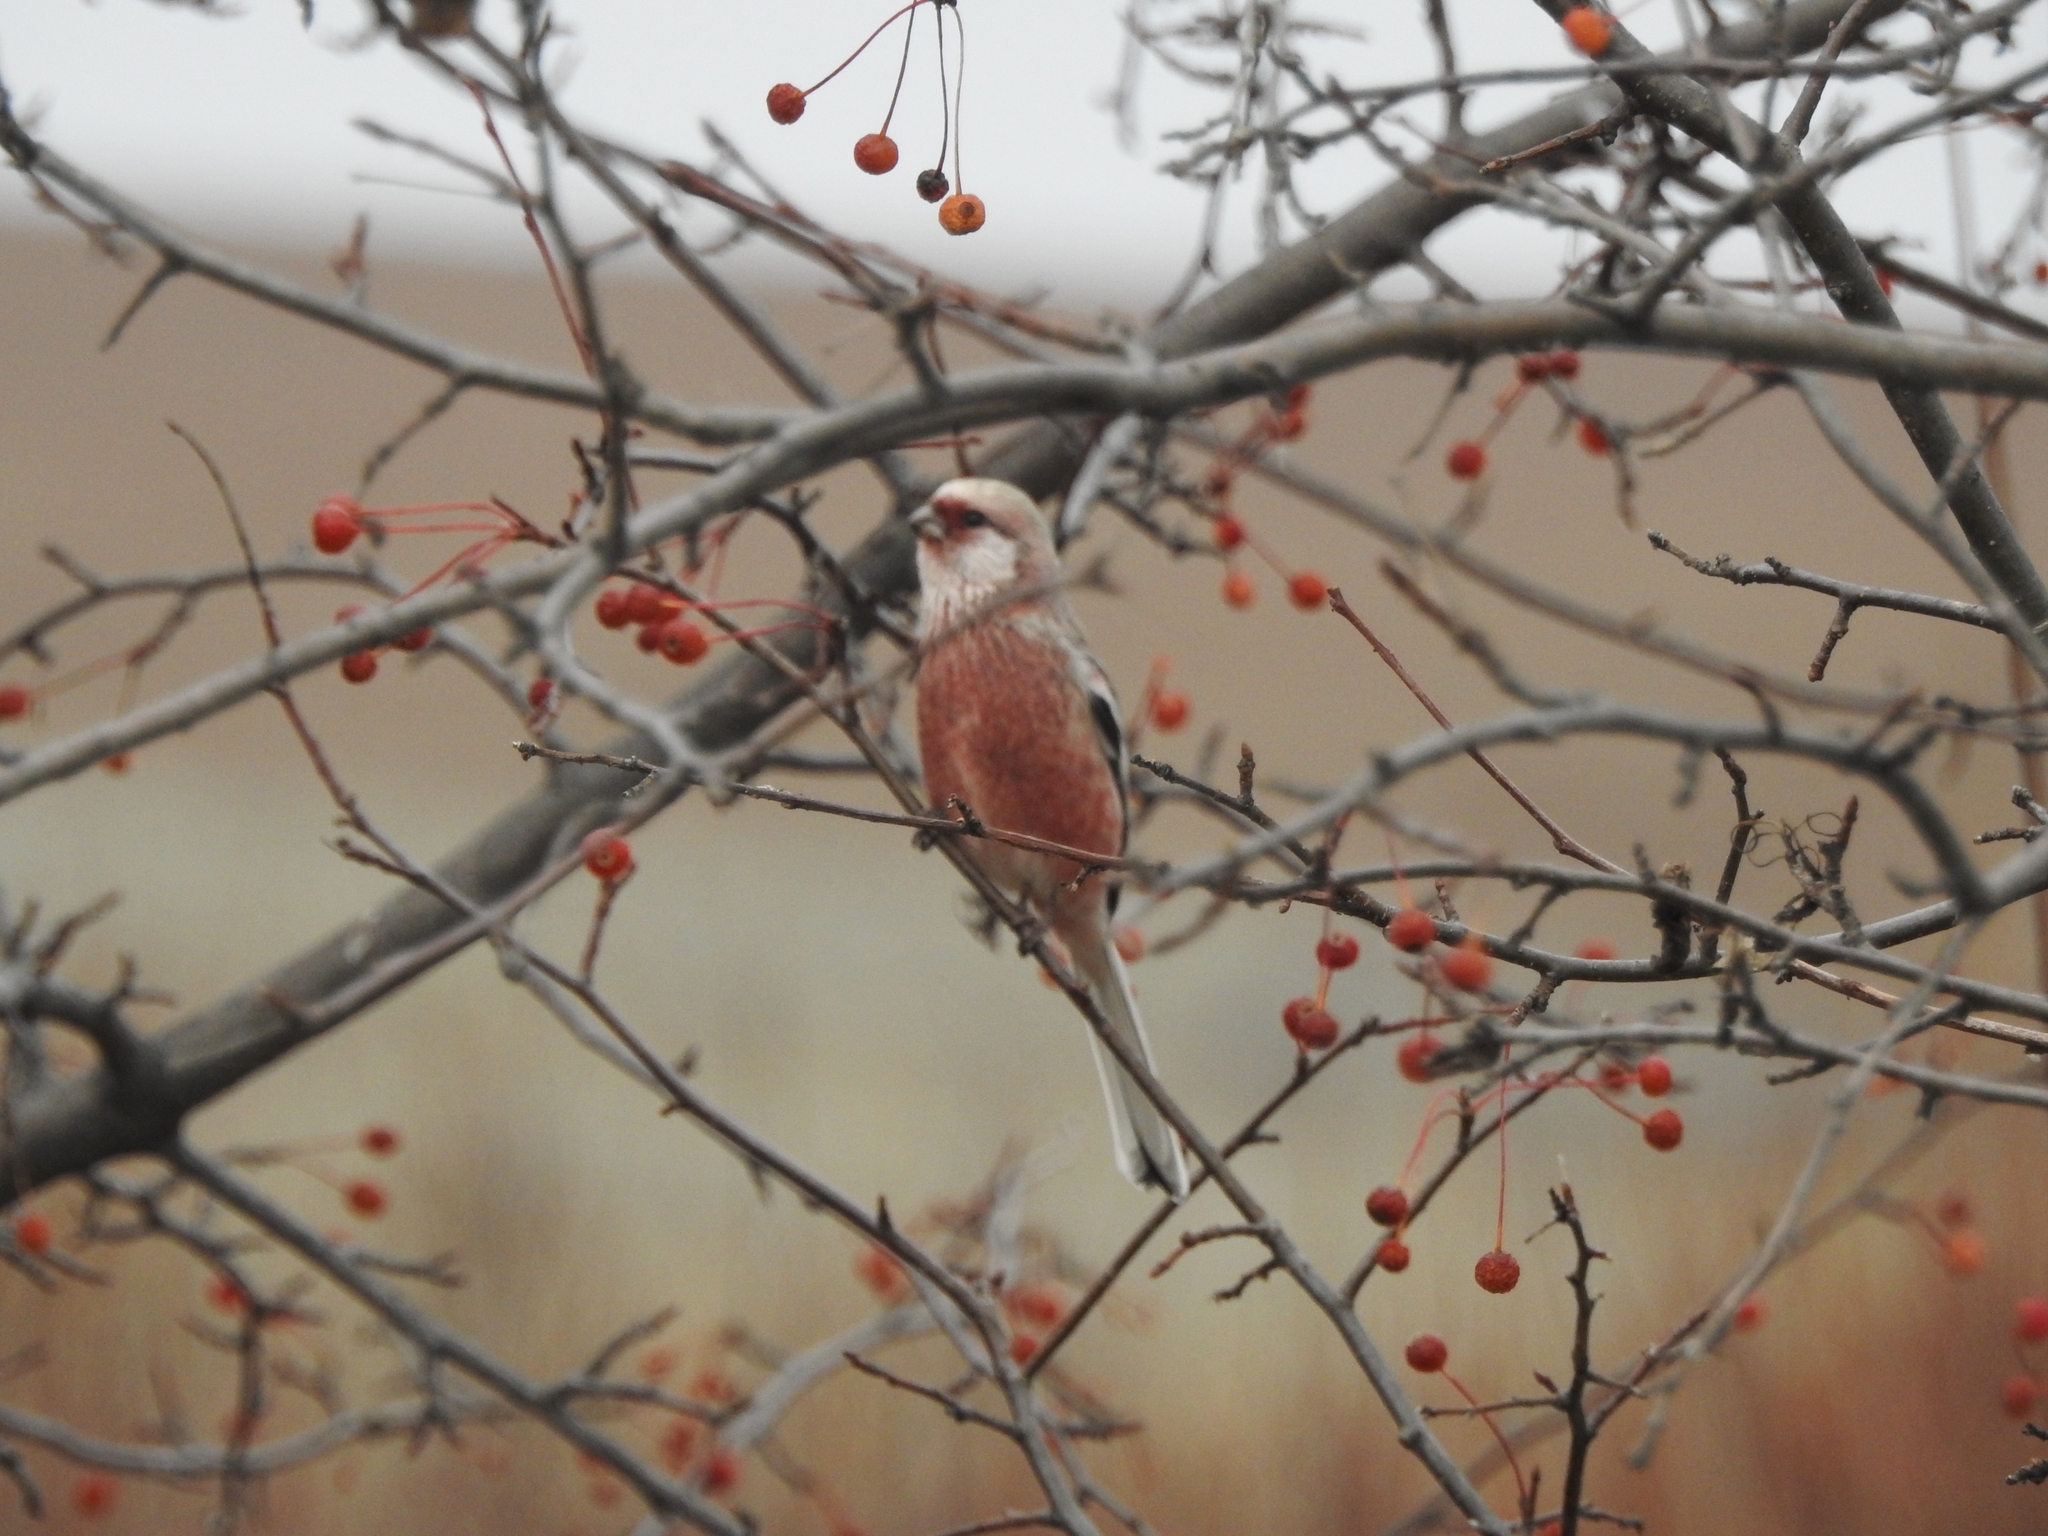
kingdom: Animalia
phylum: Chordata
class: Aves
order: Passeriformes
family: Fringillidae
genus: Carpodacus
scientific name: Carpodacus sibiricus
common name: Long-tailed rosefinch
